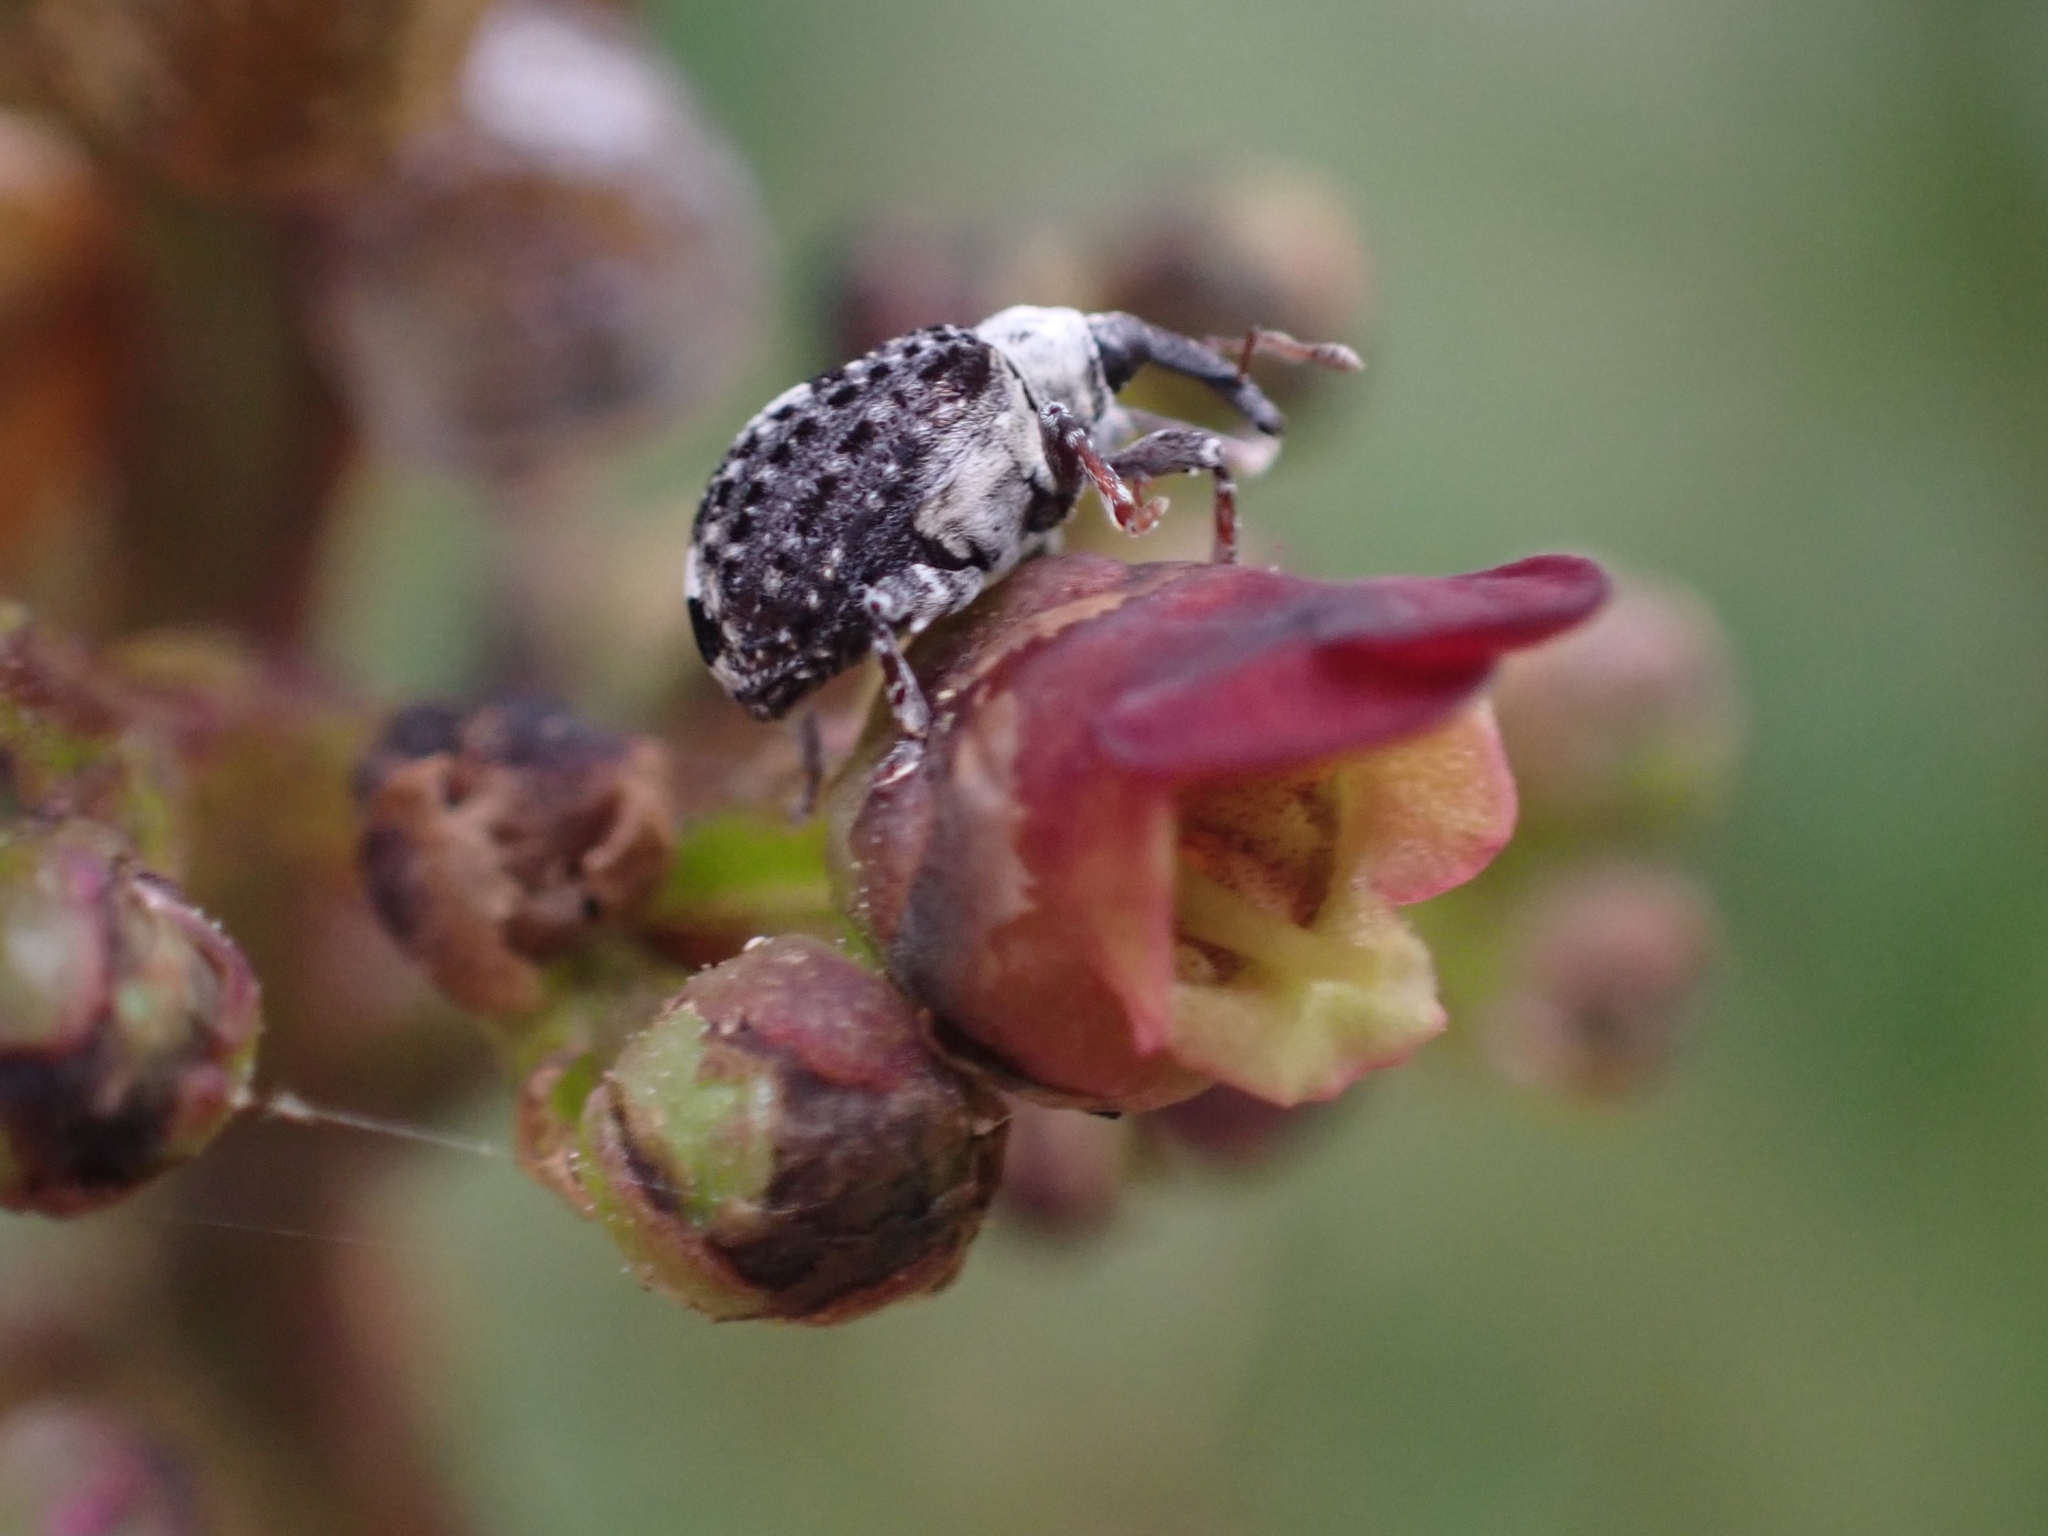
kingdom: Animalia
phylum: Arthropoda
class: Insecta
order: Coleoptera
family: Curculionidae
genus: Cionus
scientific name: Cionus scrophulariae
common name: Common figwort weevil
